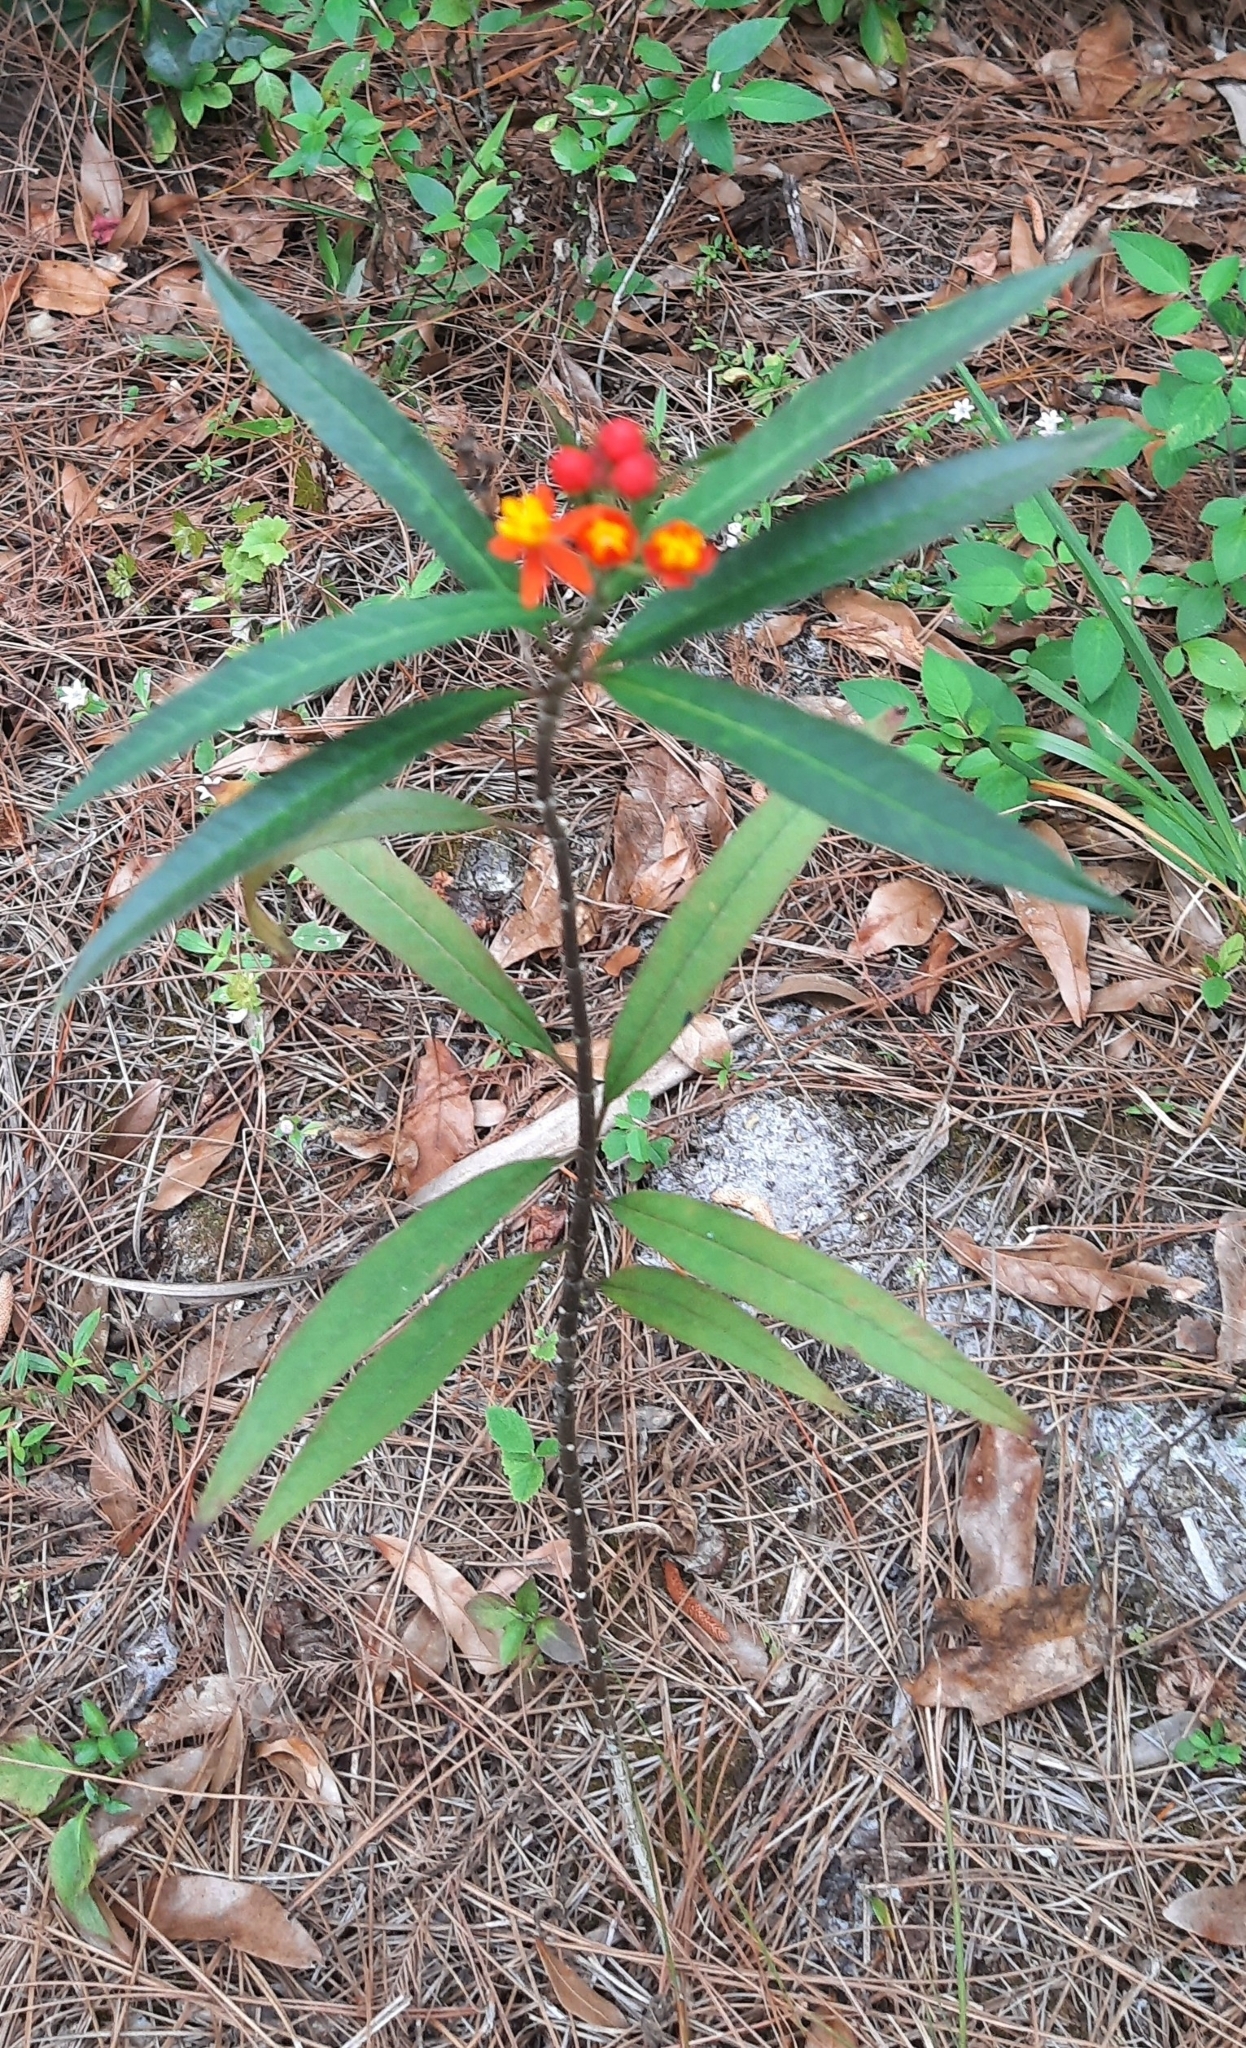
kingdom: Plantae
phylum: Tracheophyta
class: Magnoliopsida
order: Gentianales
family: Apocynaceae
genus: Asclepias
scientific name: Asclepias curassavica
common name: Bloodflower
